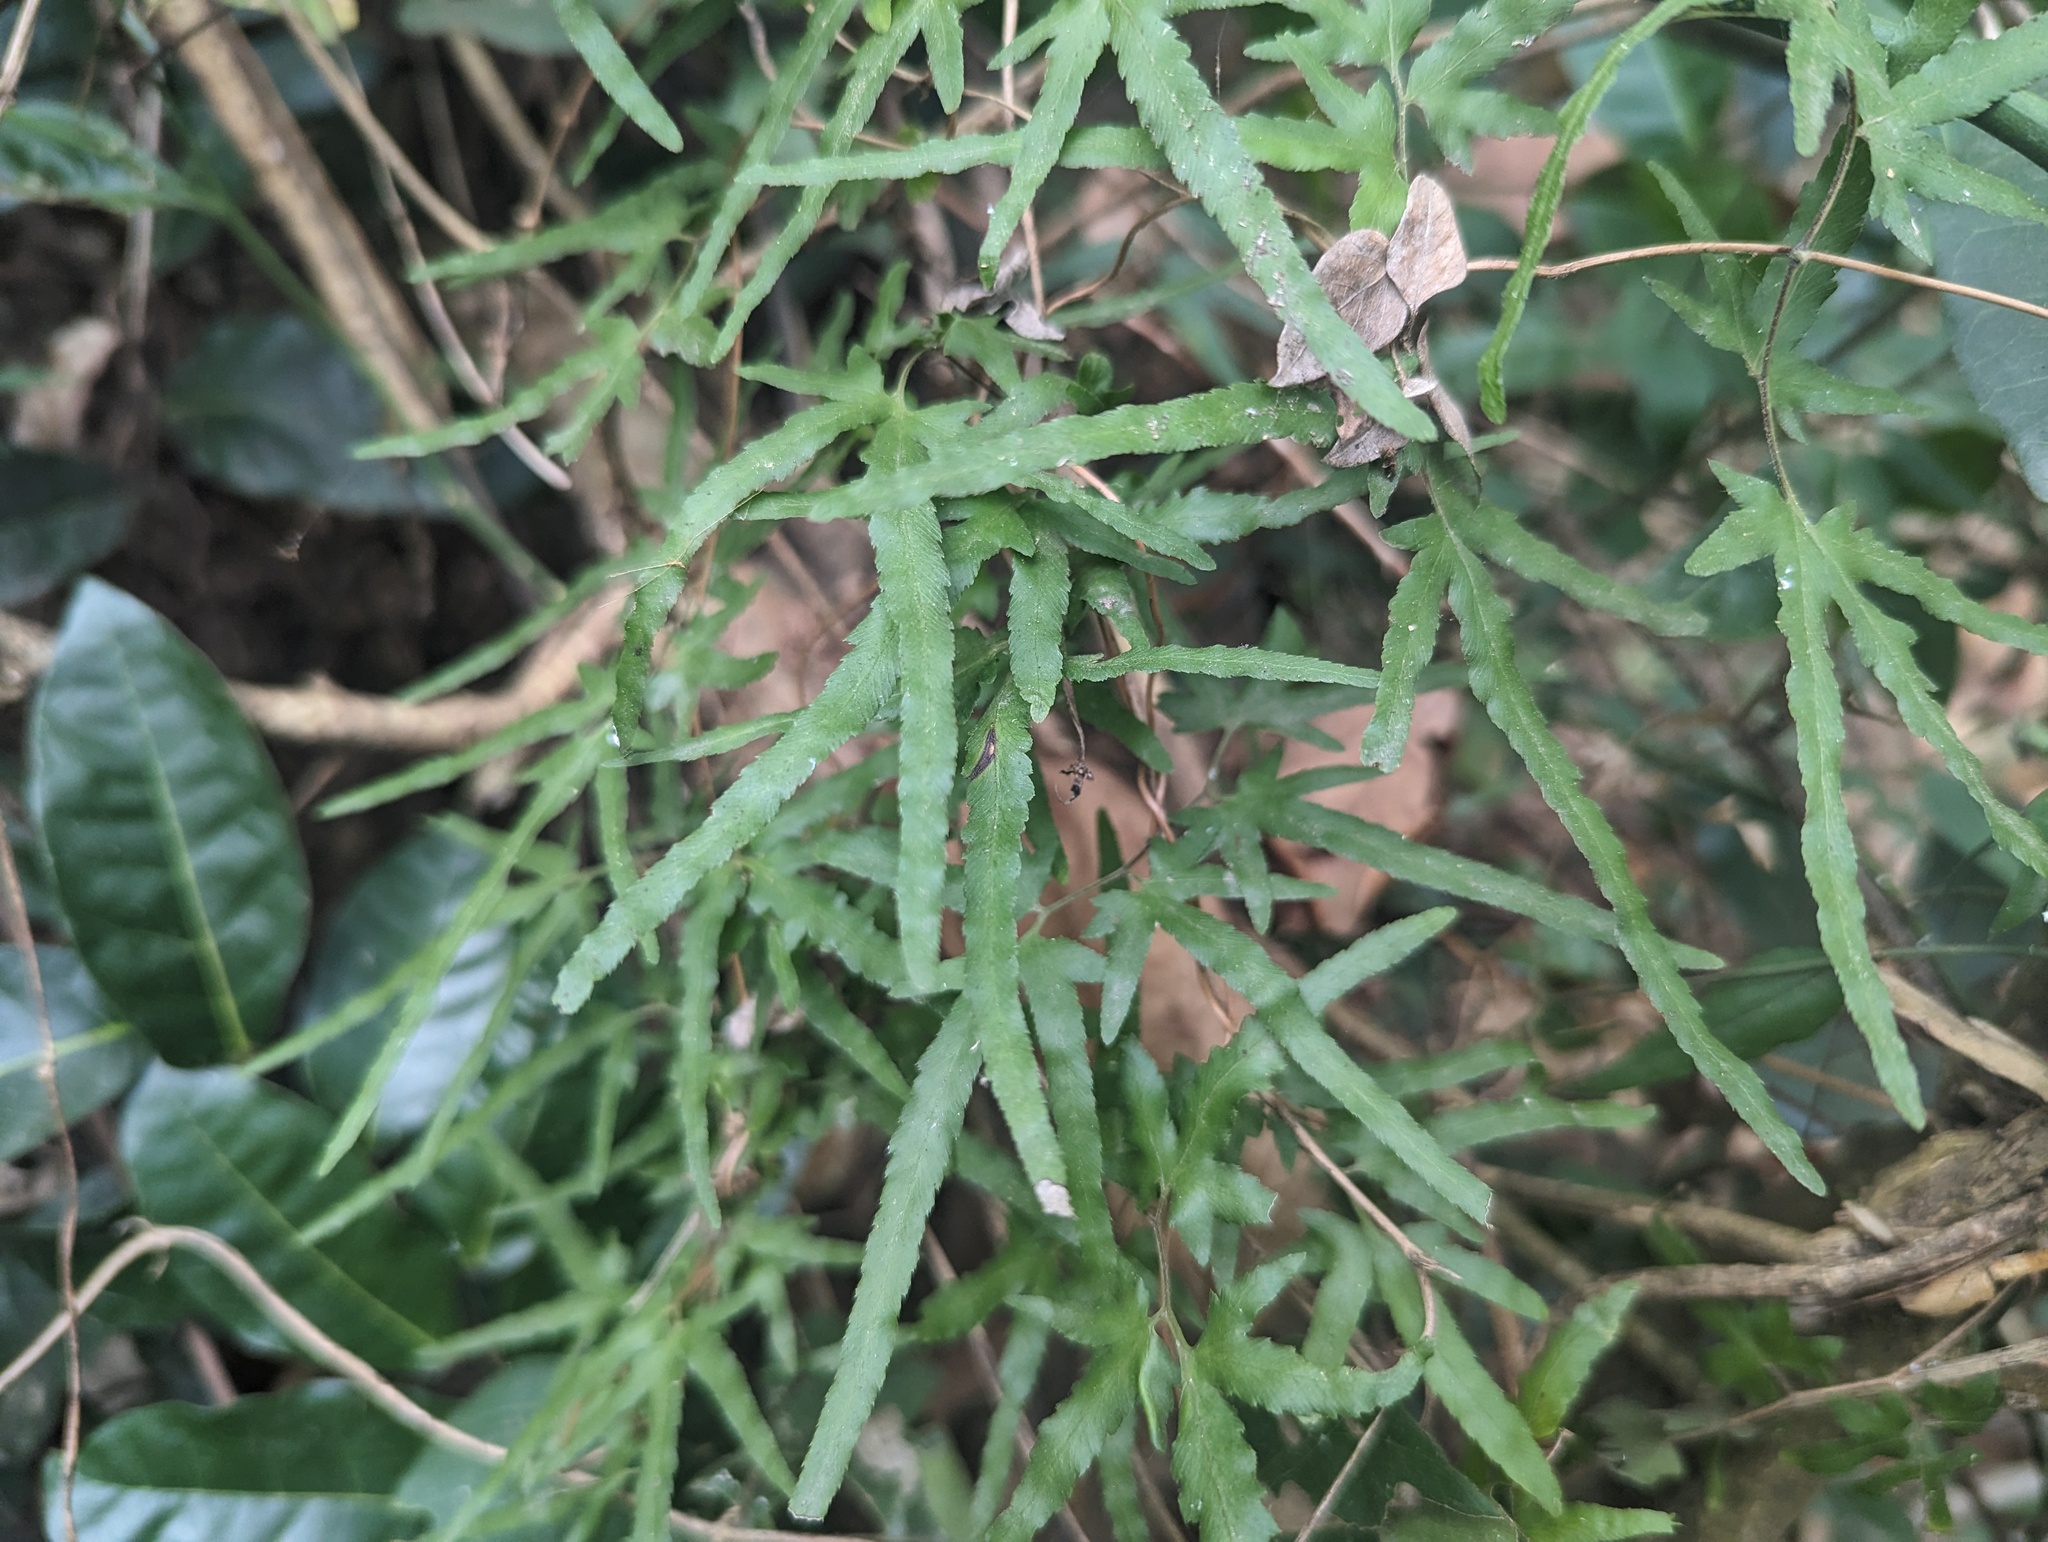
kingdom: Plantae
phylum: Tracheophyta
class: Polypodiopsida
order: Schizaeales
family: Lygodiaceae
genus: Lygodium
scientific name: Lygodium japonicum
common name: Japanese climbing fern
